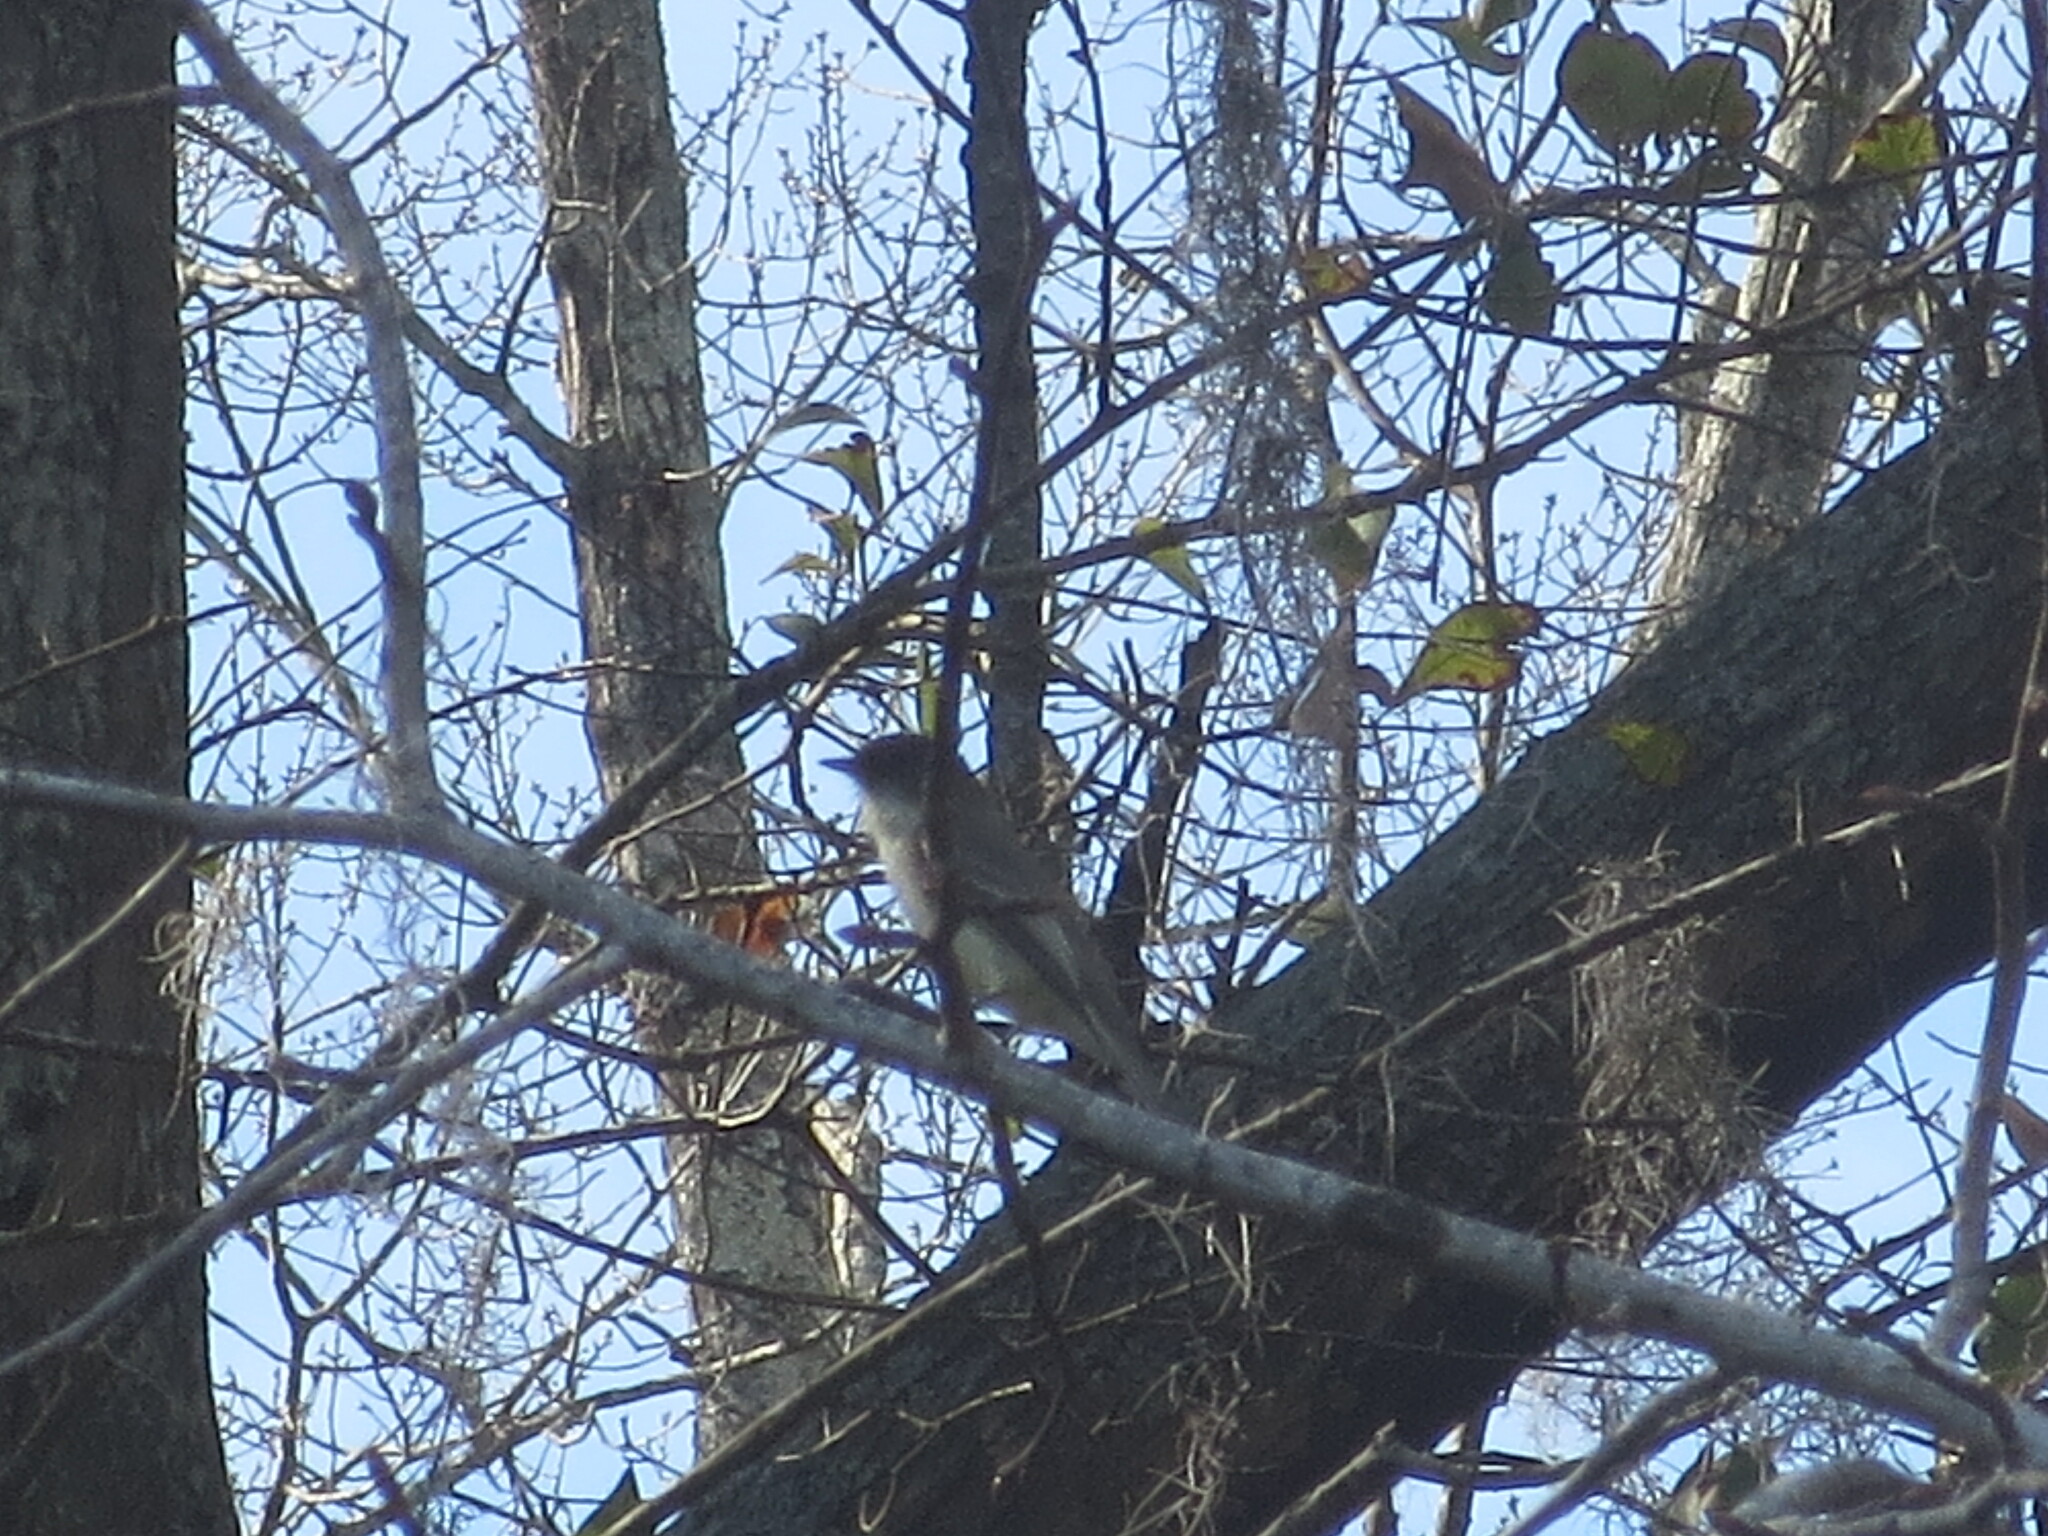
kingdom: Animalia
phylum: Chordata
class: Aves
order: Passeriformes
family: Tyrannidae
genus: Sayornis
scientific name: Sayornis phoebe
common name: Eastern phoebe
